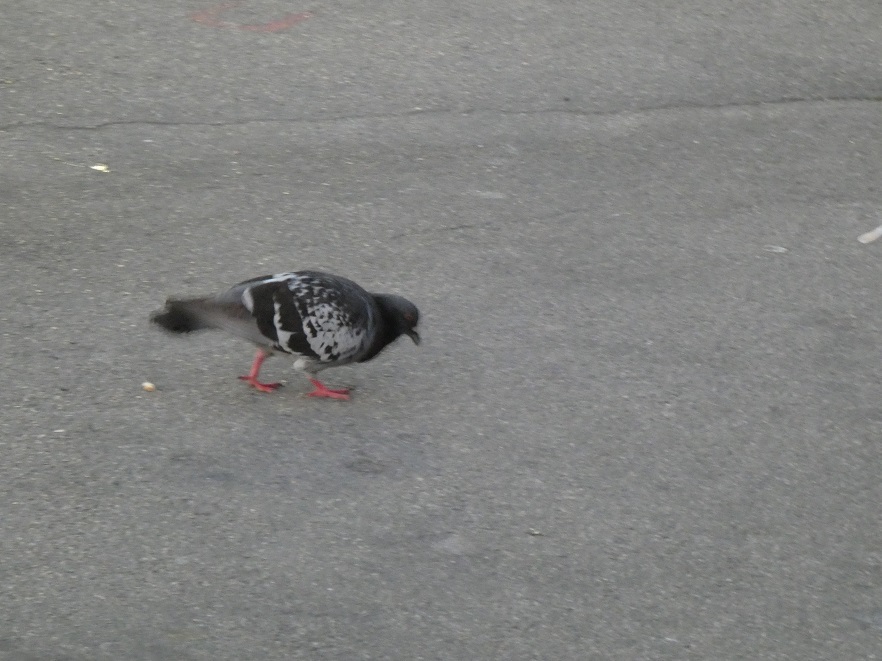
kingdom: Animalia
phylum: Chordata
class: Aves
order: Columbiformes
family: Columbidae
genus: Columba
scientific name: Columba livia
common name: Rock pigeon
